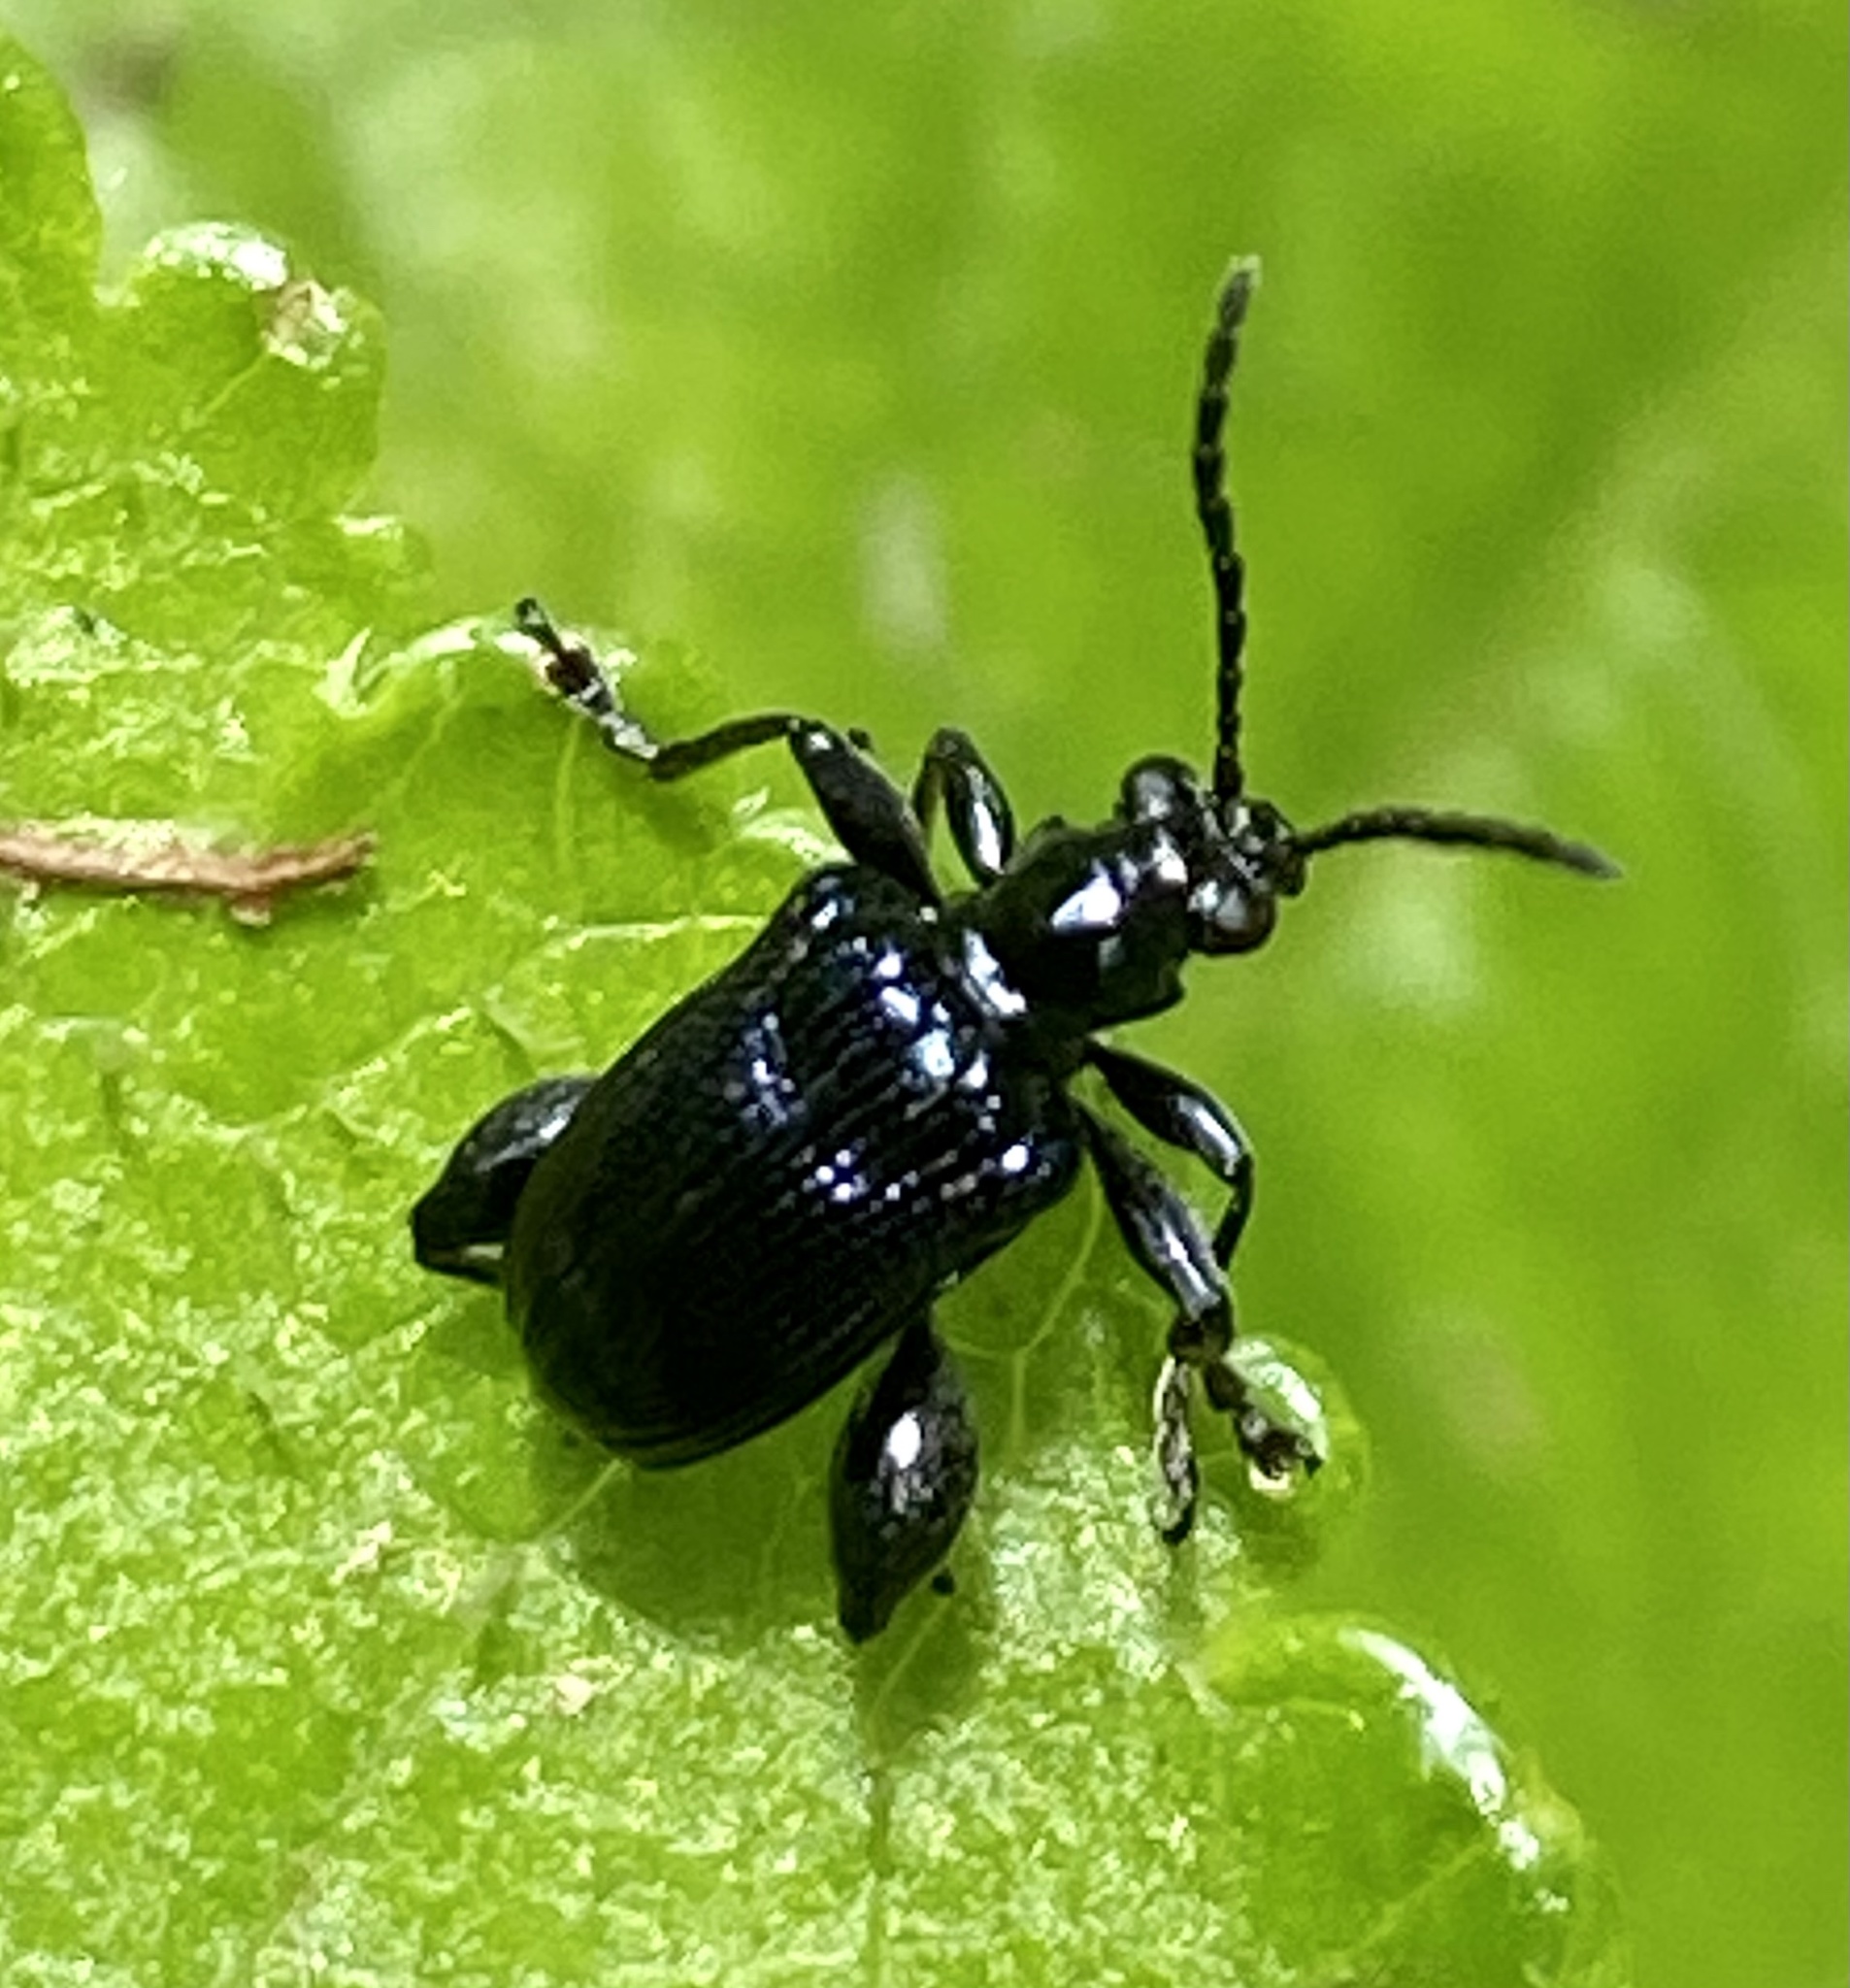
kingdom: Animalia
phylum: Arthropoda
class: Insecta
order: Coleoptera
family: Chrysomelidae
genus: Lema
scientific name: Lema
